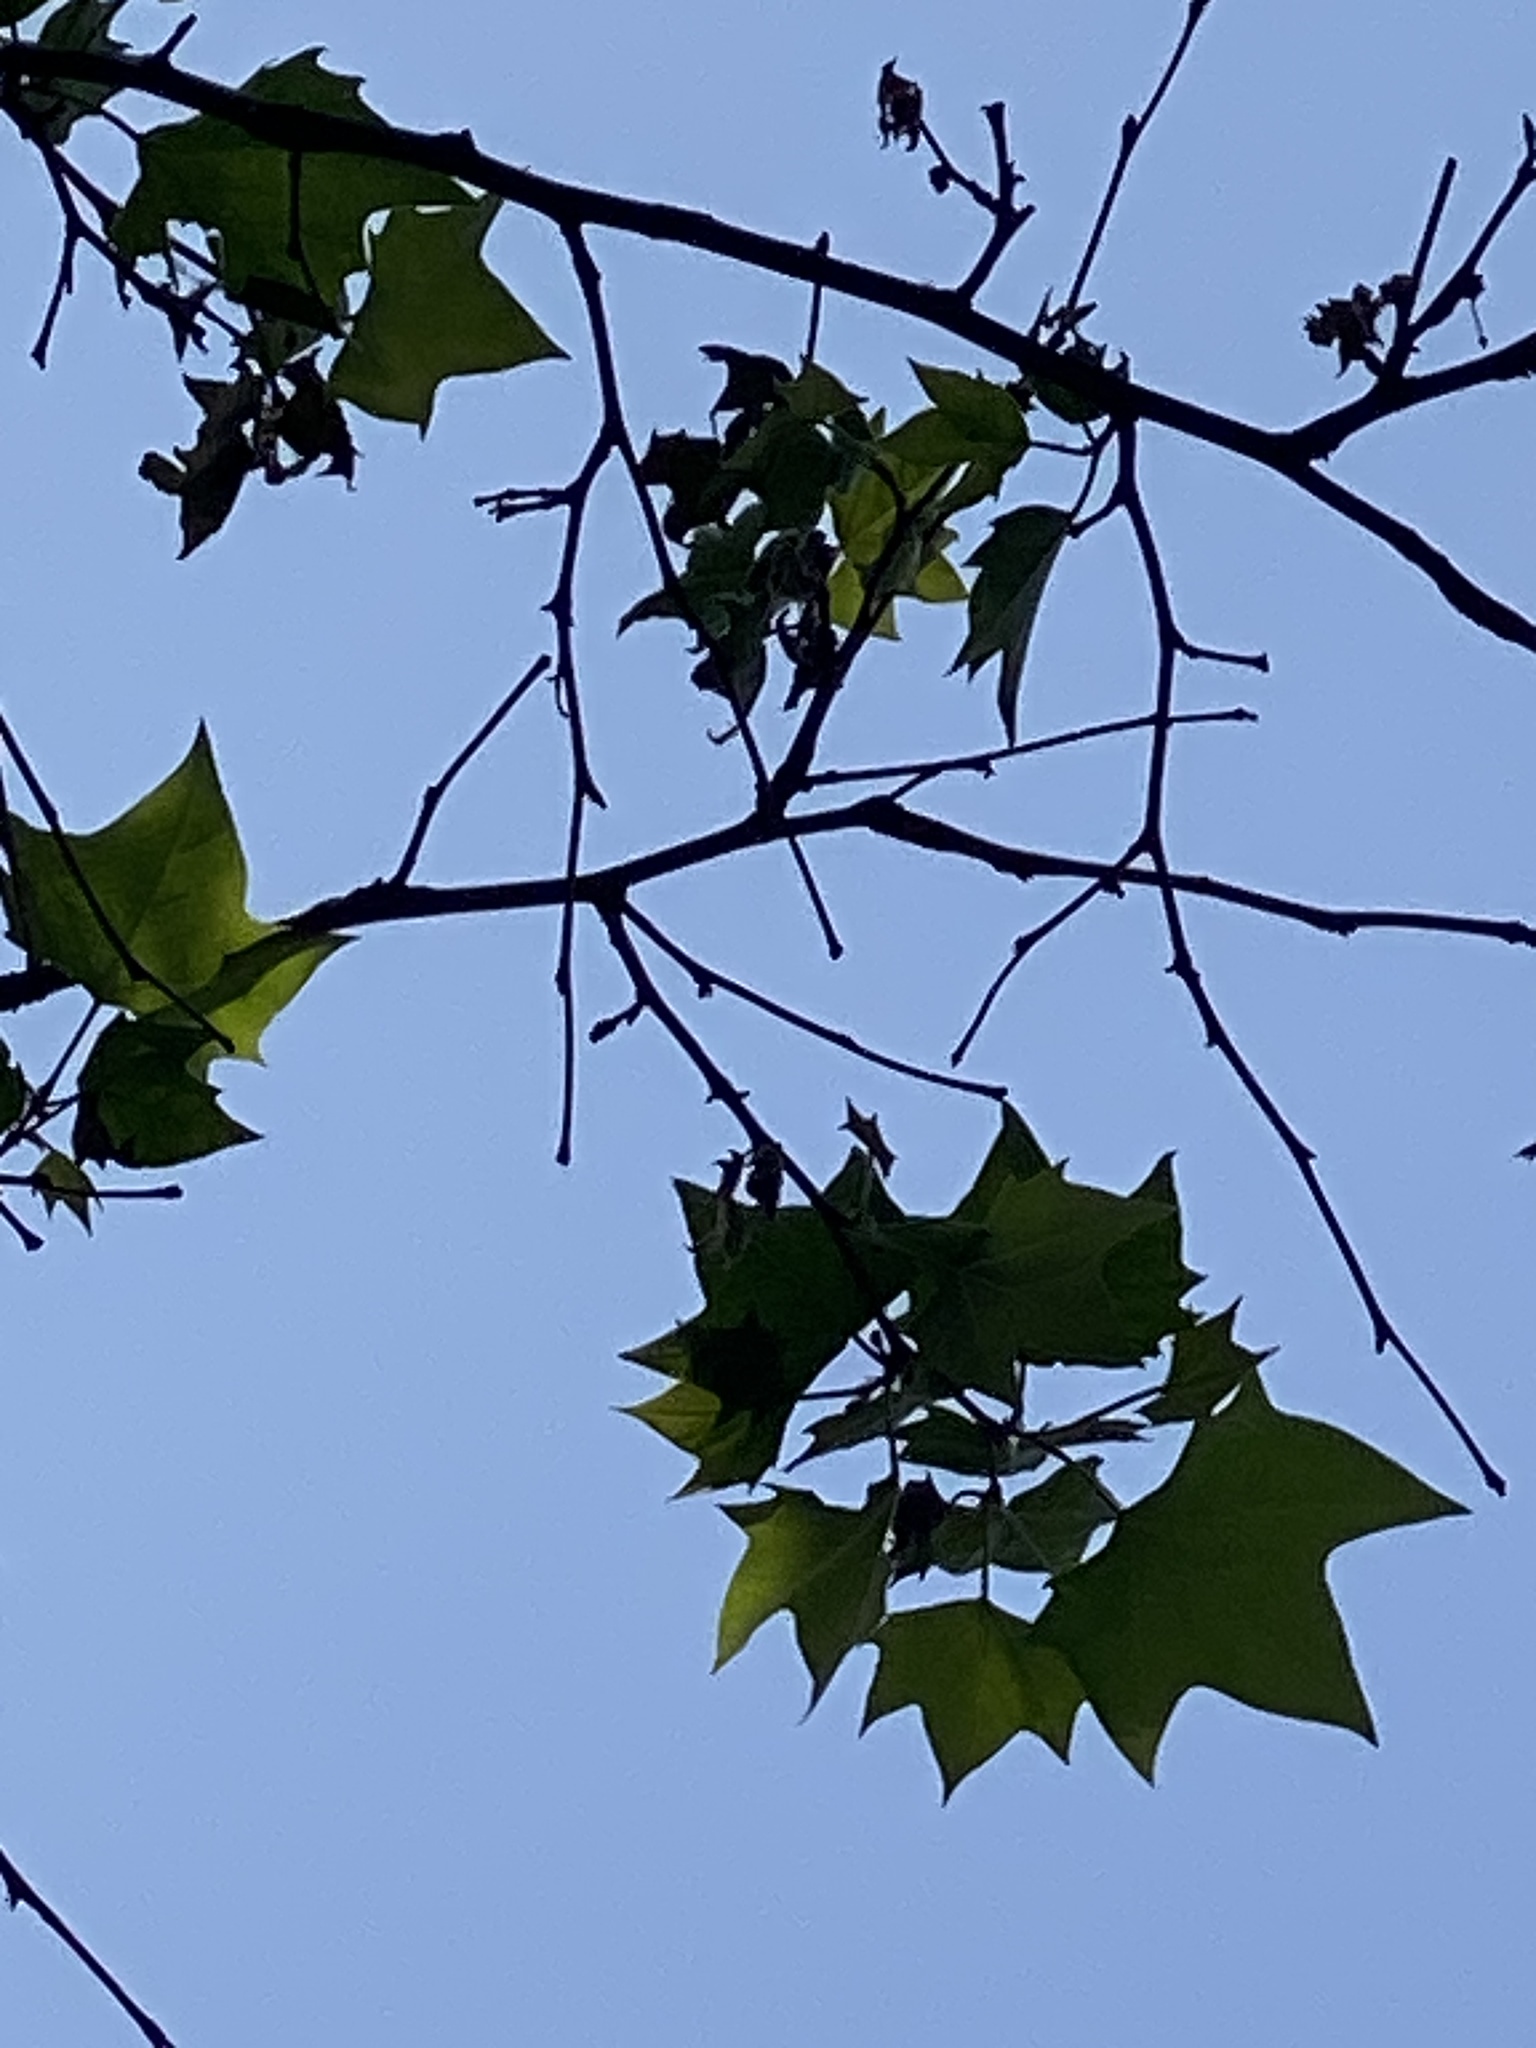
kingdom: Plantae
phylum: Tracheophyta
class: Magnoliopsida
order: Proteales
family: Platanaceae
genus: Platanus
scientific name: Platanus occidentalis
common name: American sycamore
